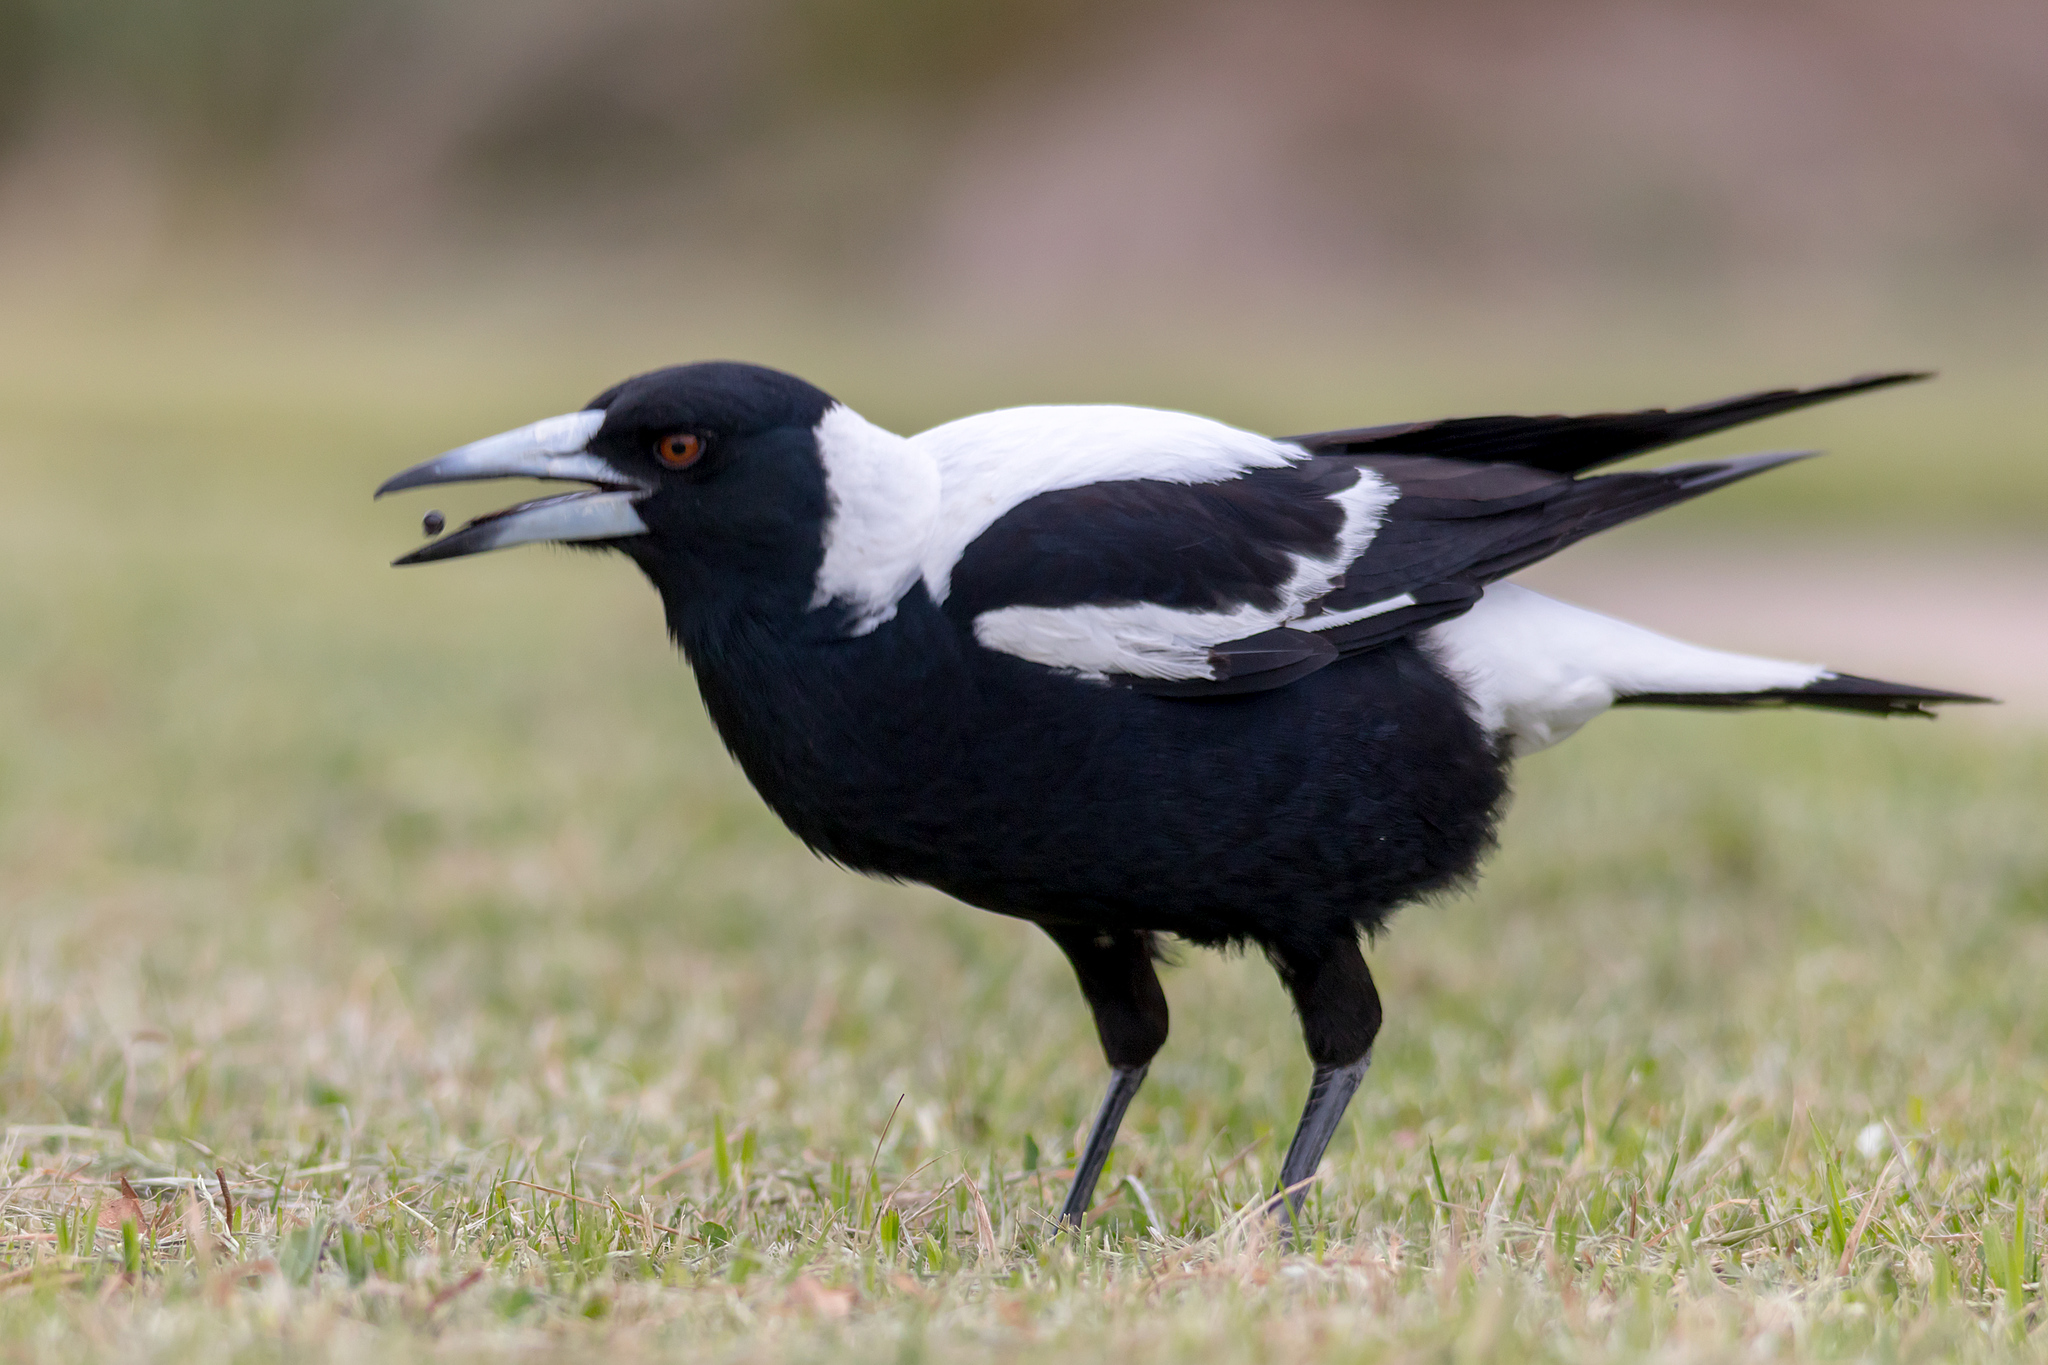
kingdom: Animalia
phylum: Chordata
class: Aves
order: Passeriformes
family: Cracticidae
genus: Gymnorhina
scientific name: Gymnorhina tibicen
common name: Australian magpie
